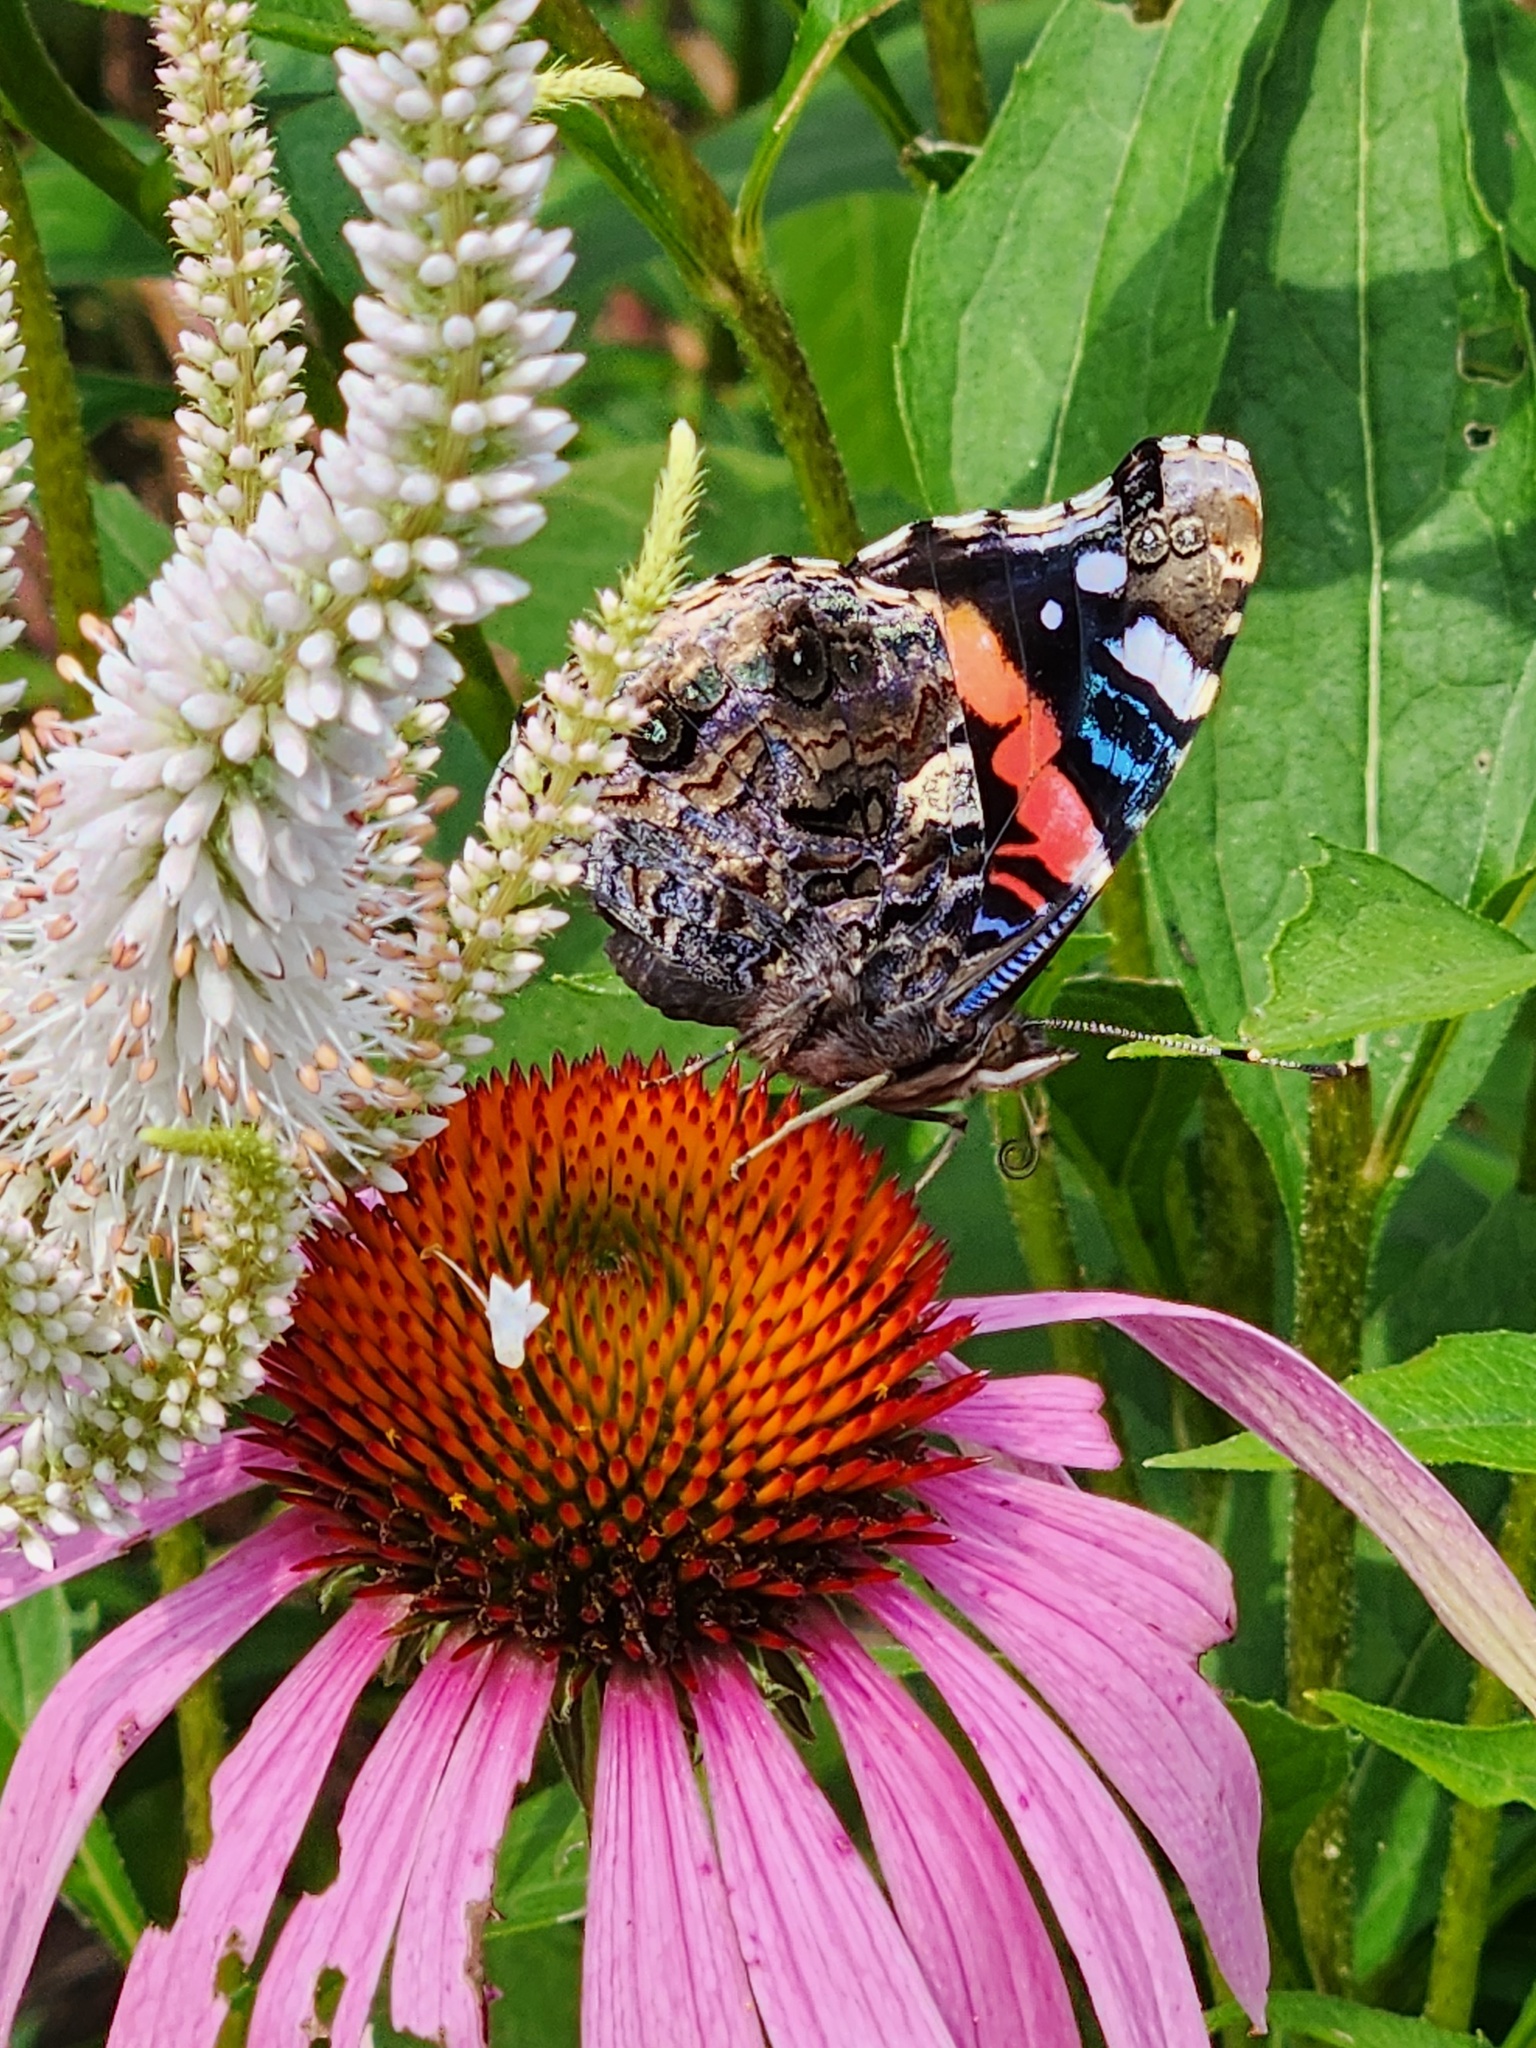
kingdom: Animalia
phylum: Arthropoda
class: Insecta
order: Lepidoptera
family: Nymphalidae
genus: Vanessa
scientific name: Vanessa atalanta
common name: Red admiral
